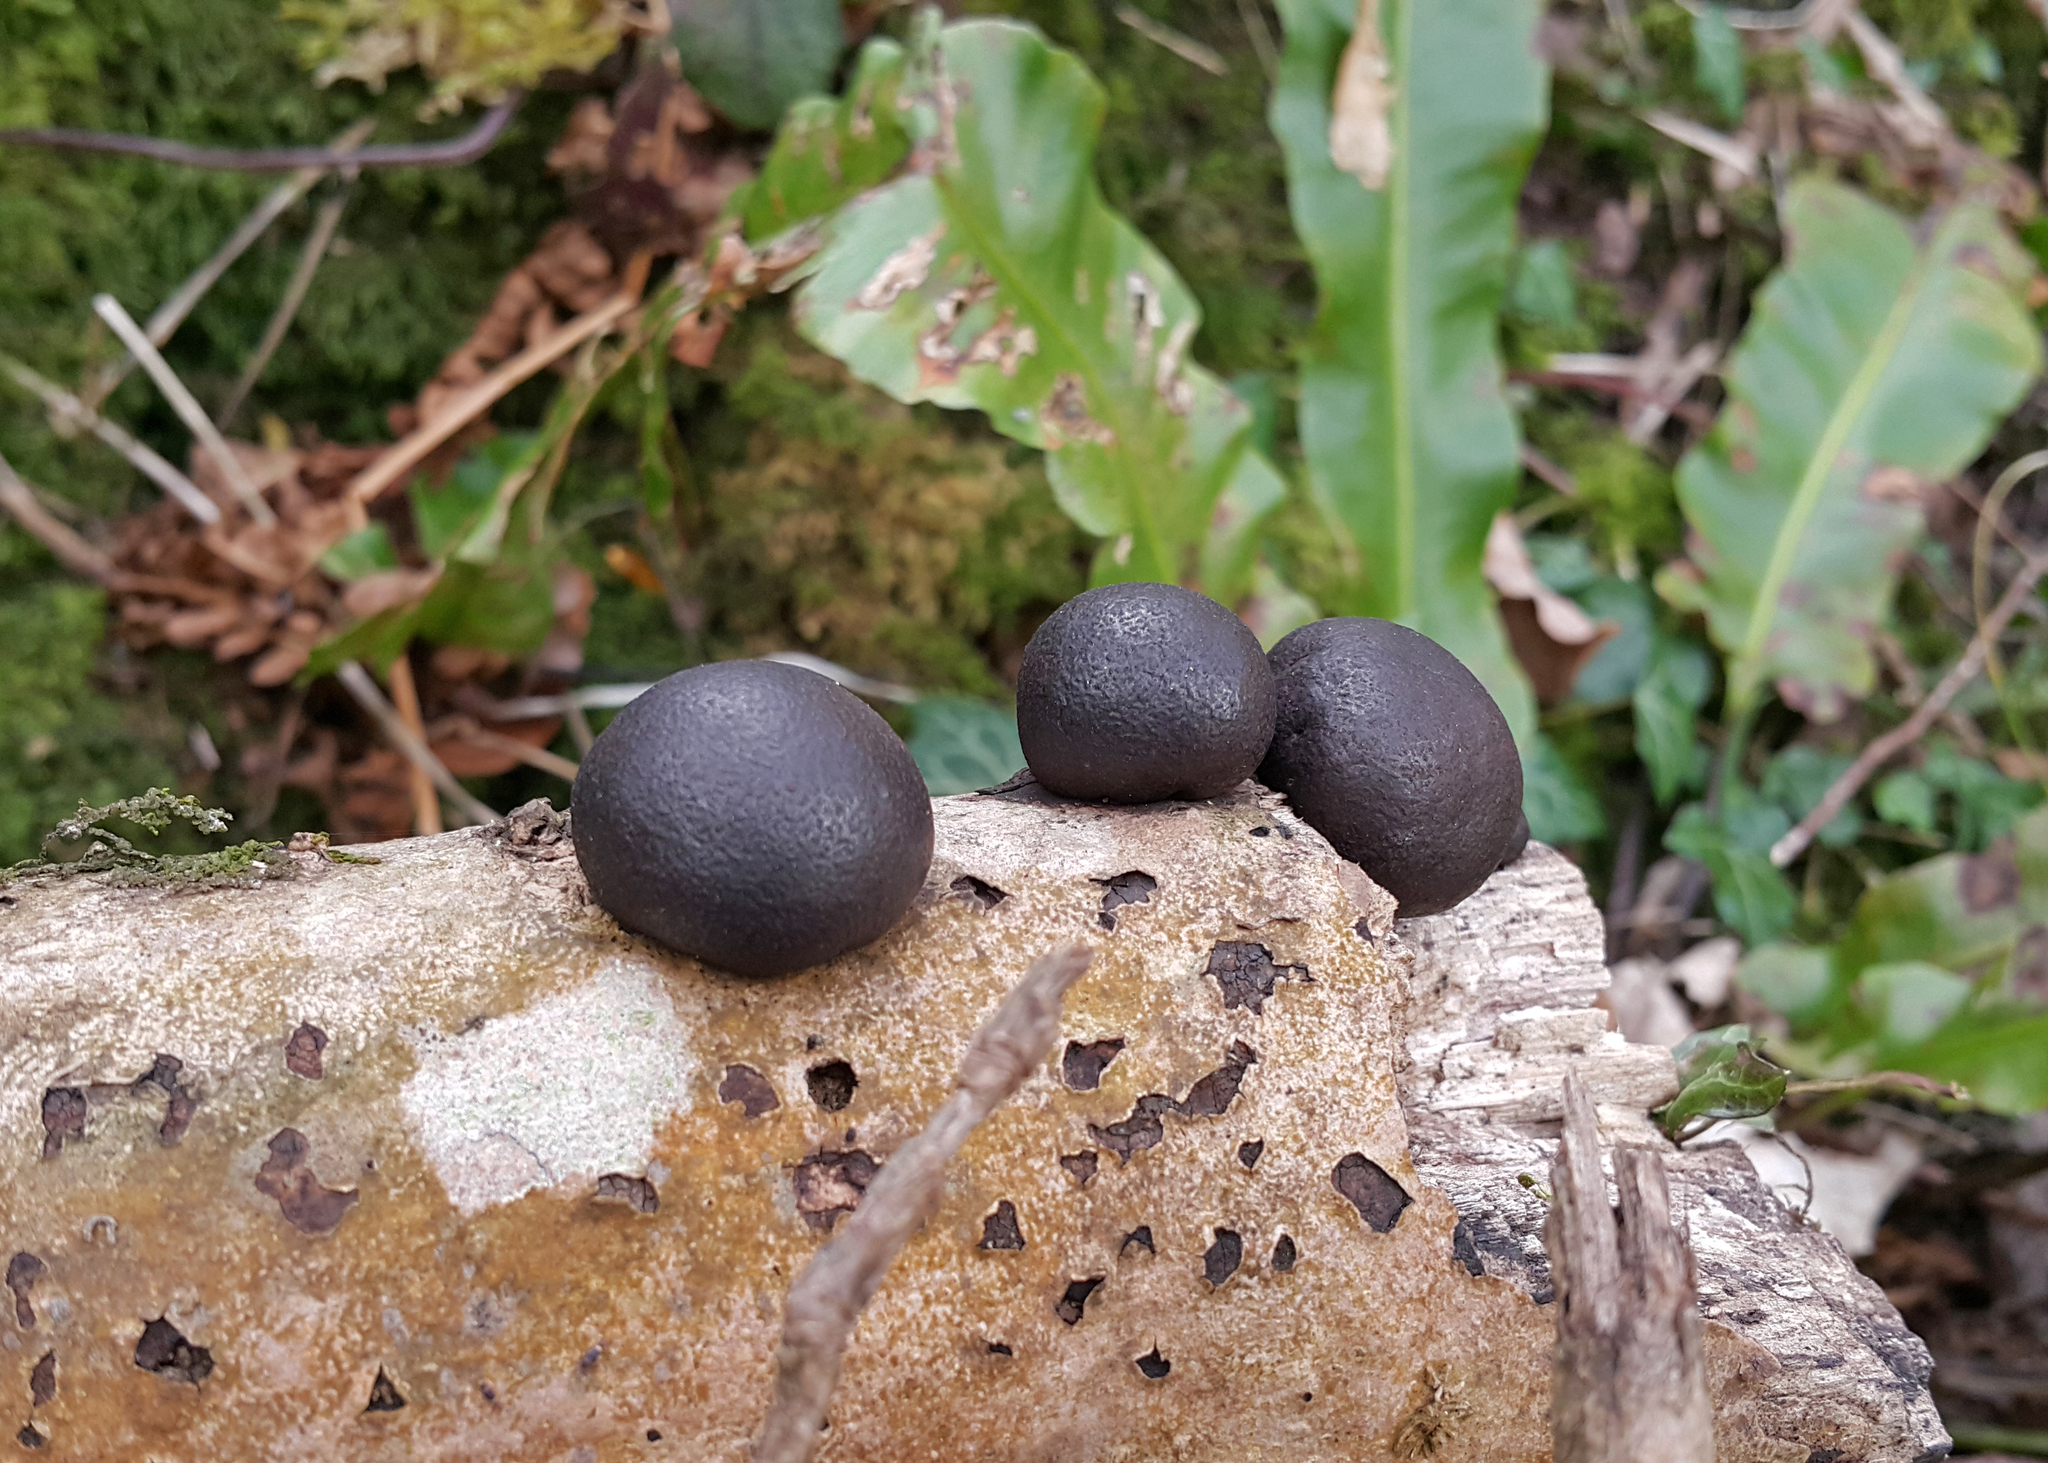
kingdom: Fungi
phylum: Ascomycota
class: Sordariomycetes
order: Xylariales
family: Hypoxylaceae
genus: Daldinia
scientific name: Daldinia concentrica
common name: Cramp balls
